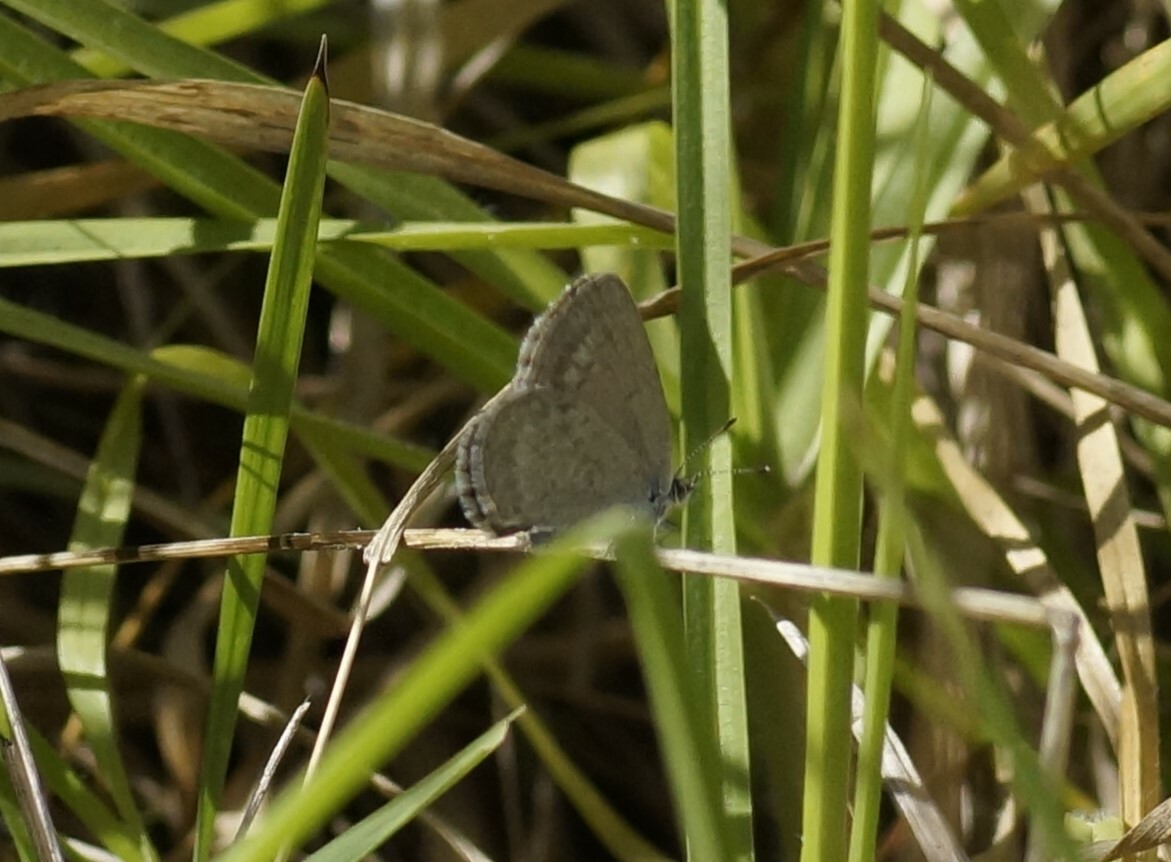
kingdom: Animalia
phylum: Arthropoda
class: Insecta
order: Lepidoptera
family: Lycaenidae
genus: Zizina
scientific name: Zizina labradus
